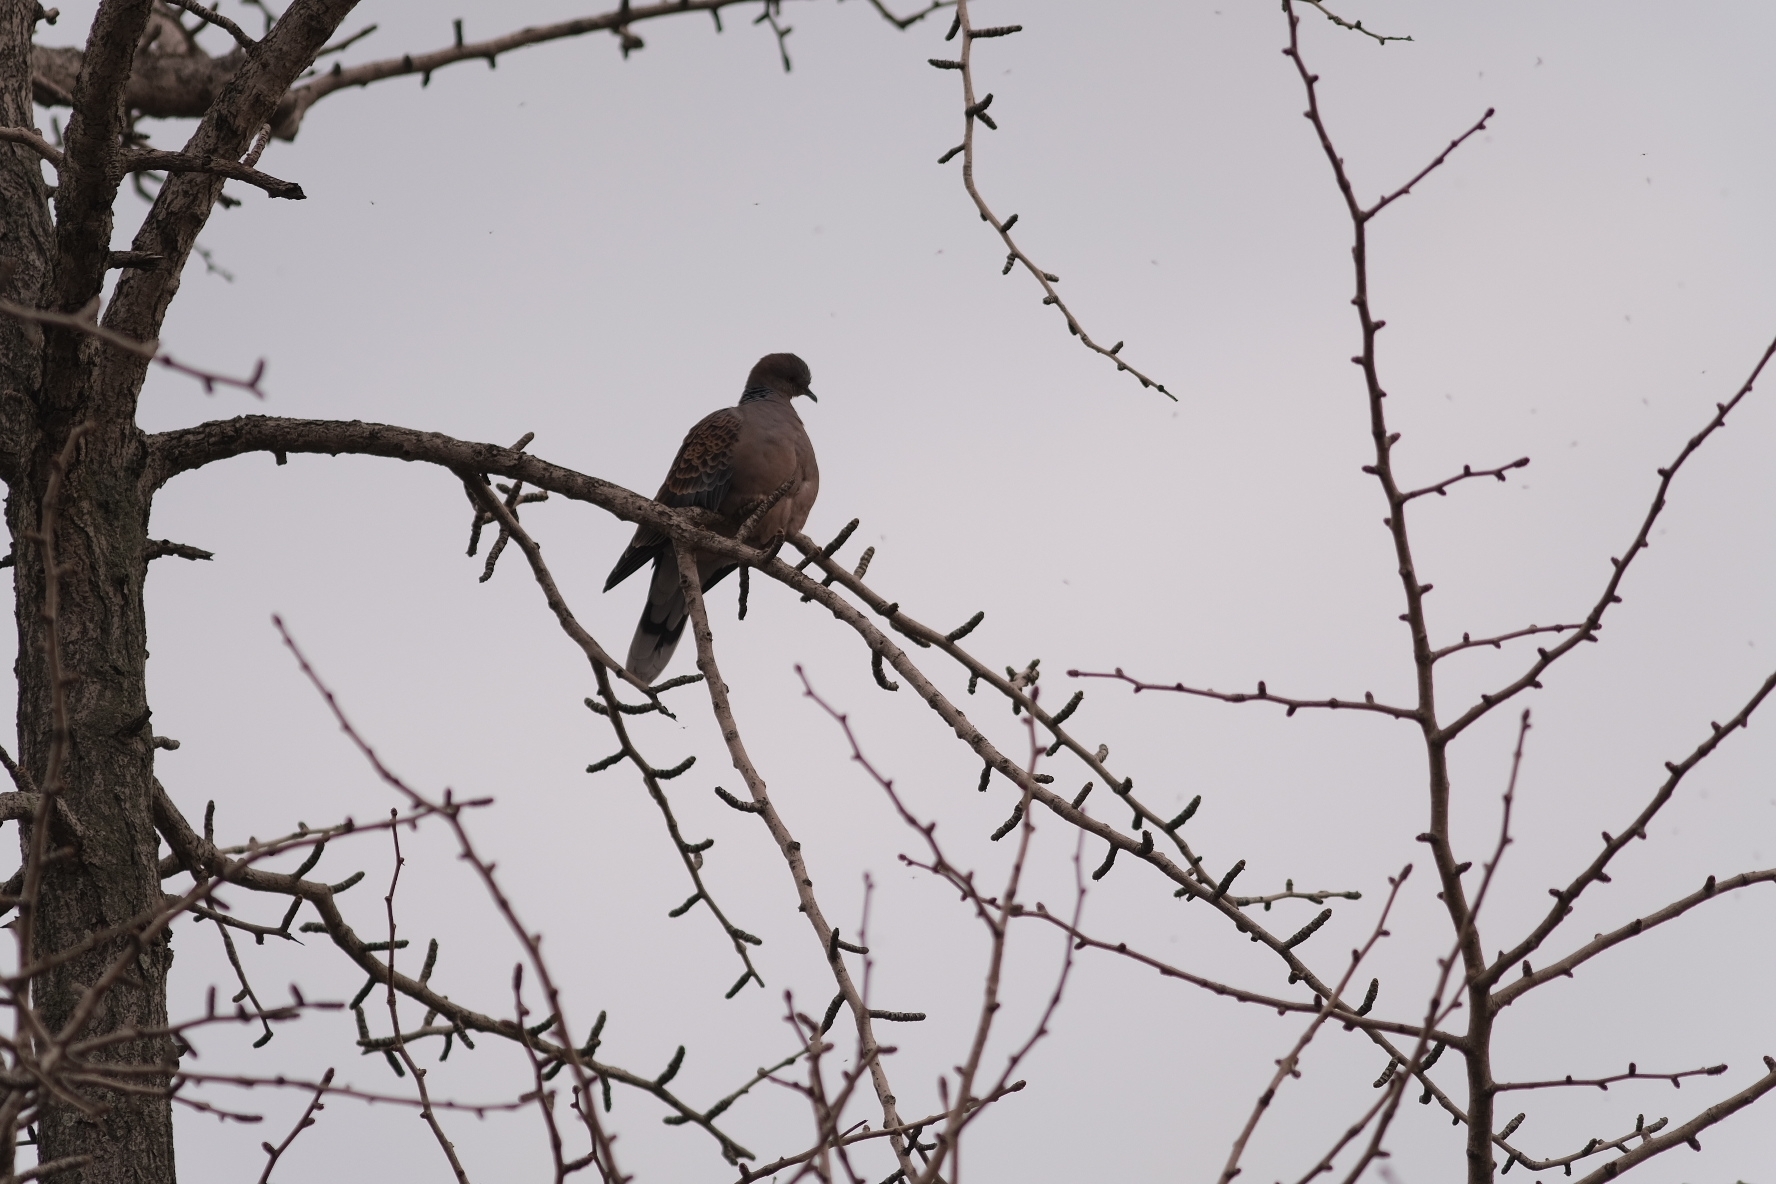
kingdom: Animalia
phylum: Chordata
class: Aves
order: Columbiformes
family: Columbidae
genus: Streptopelia
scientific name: Streptopelia orientalis
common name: Oriental turtle dove
